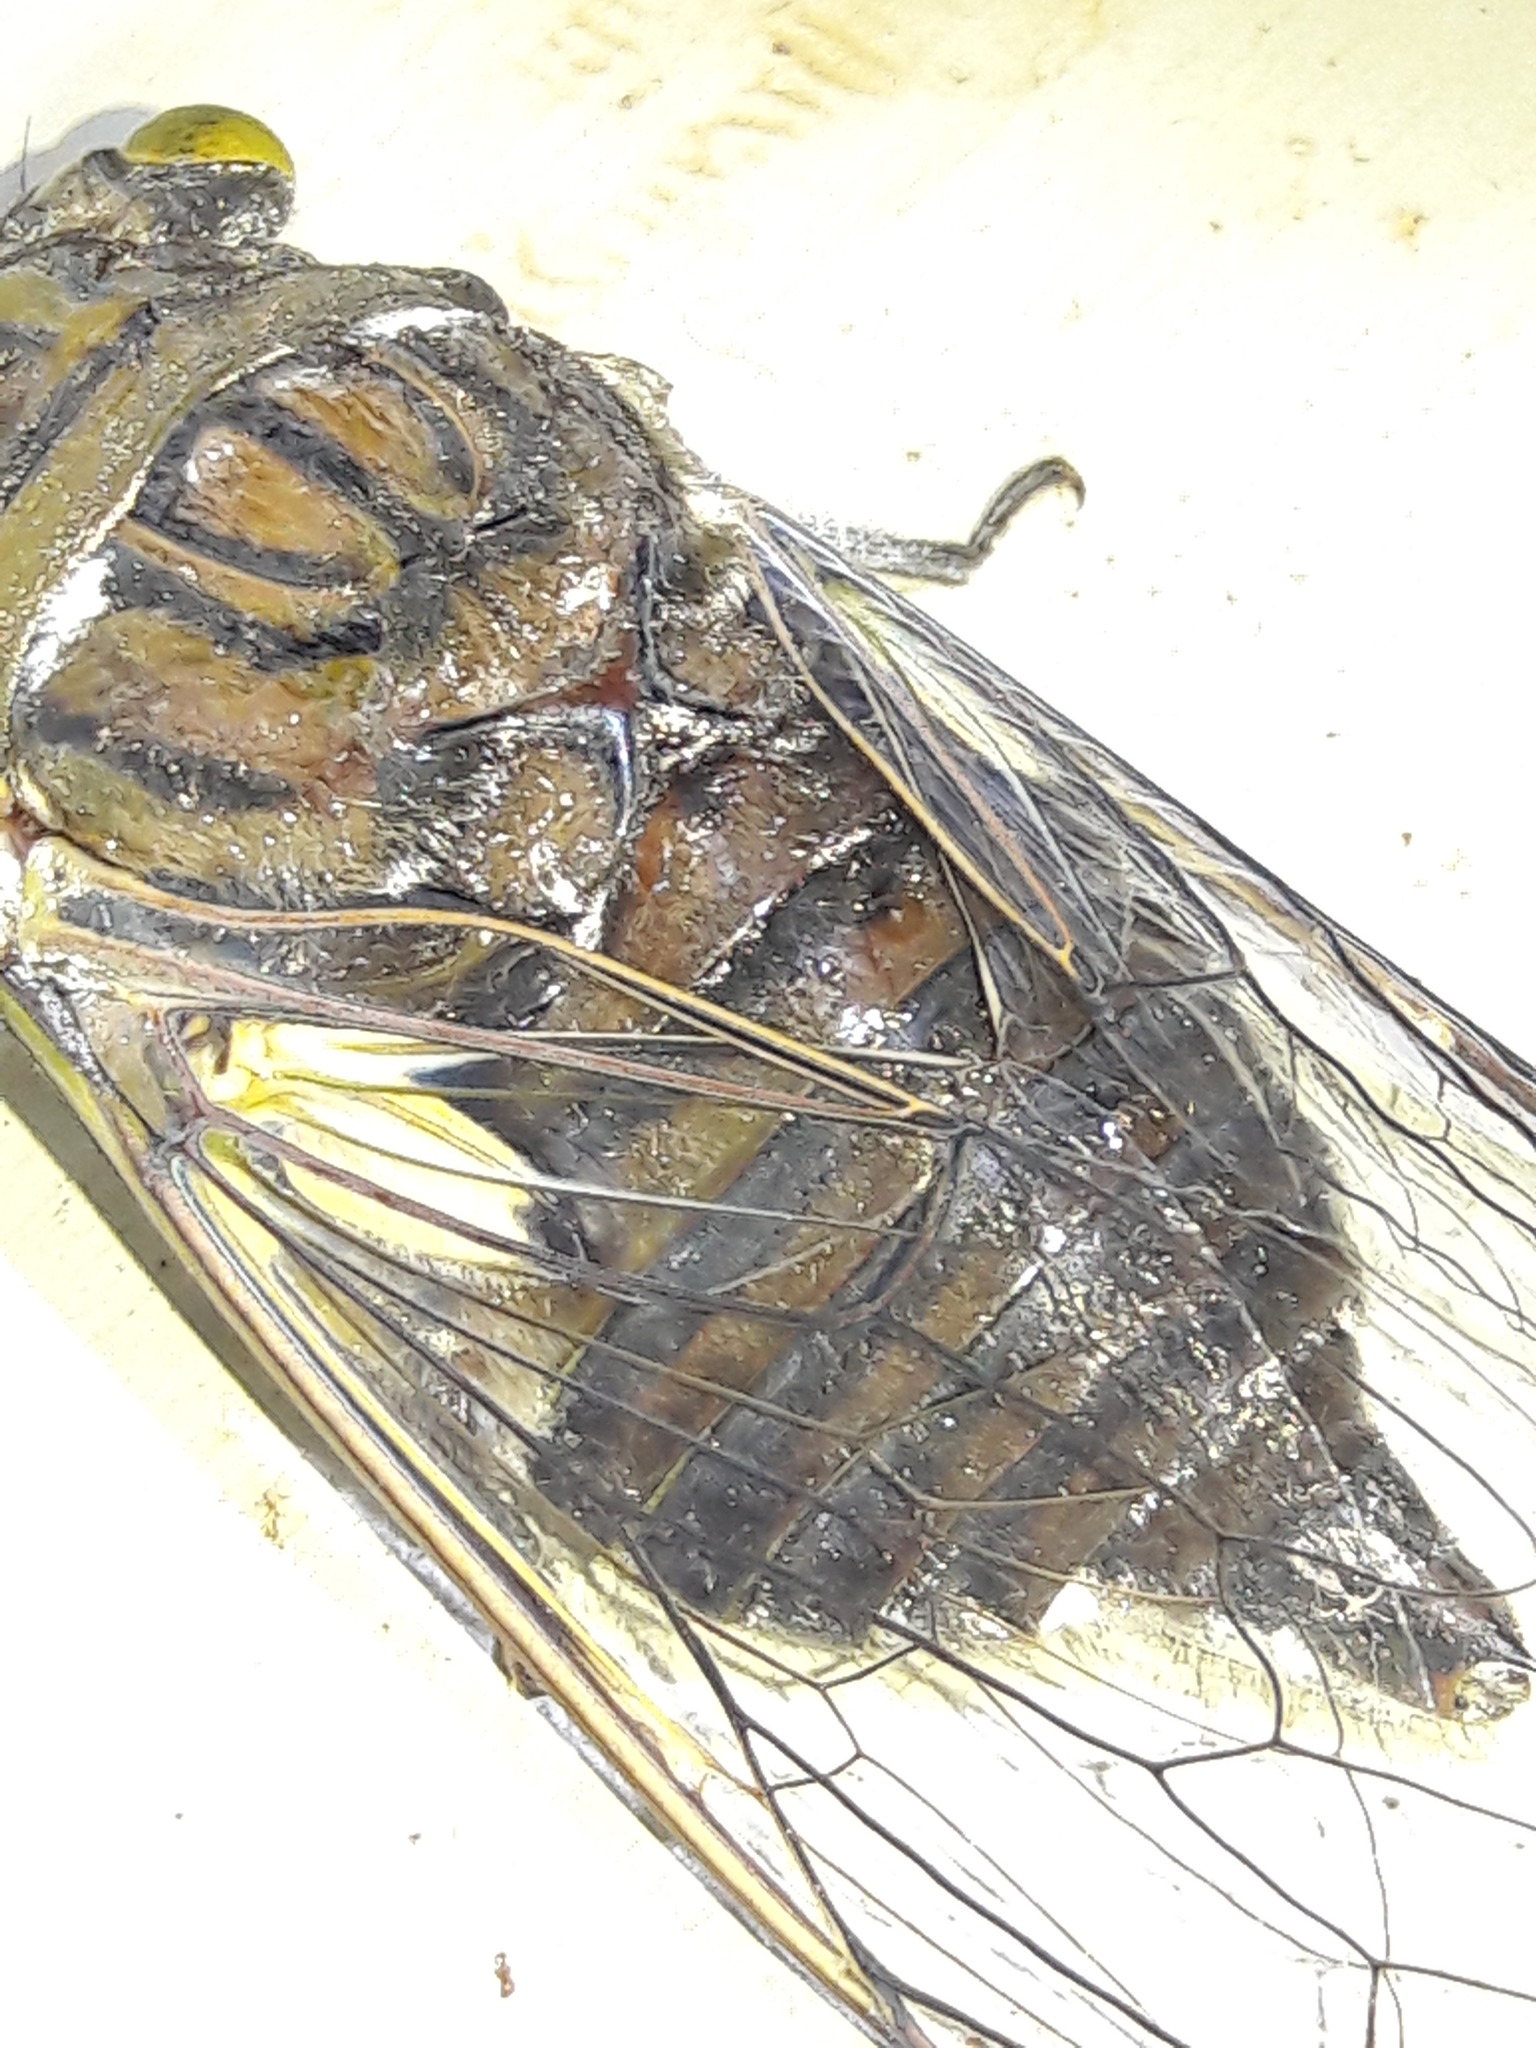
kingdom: Animalia
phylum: Arthropoda
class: Insecta
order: Hemiptera
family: Cicadidae
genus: Quesada
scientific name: Quesada gigas
